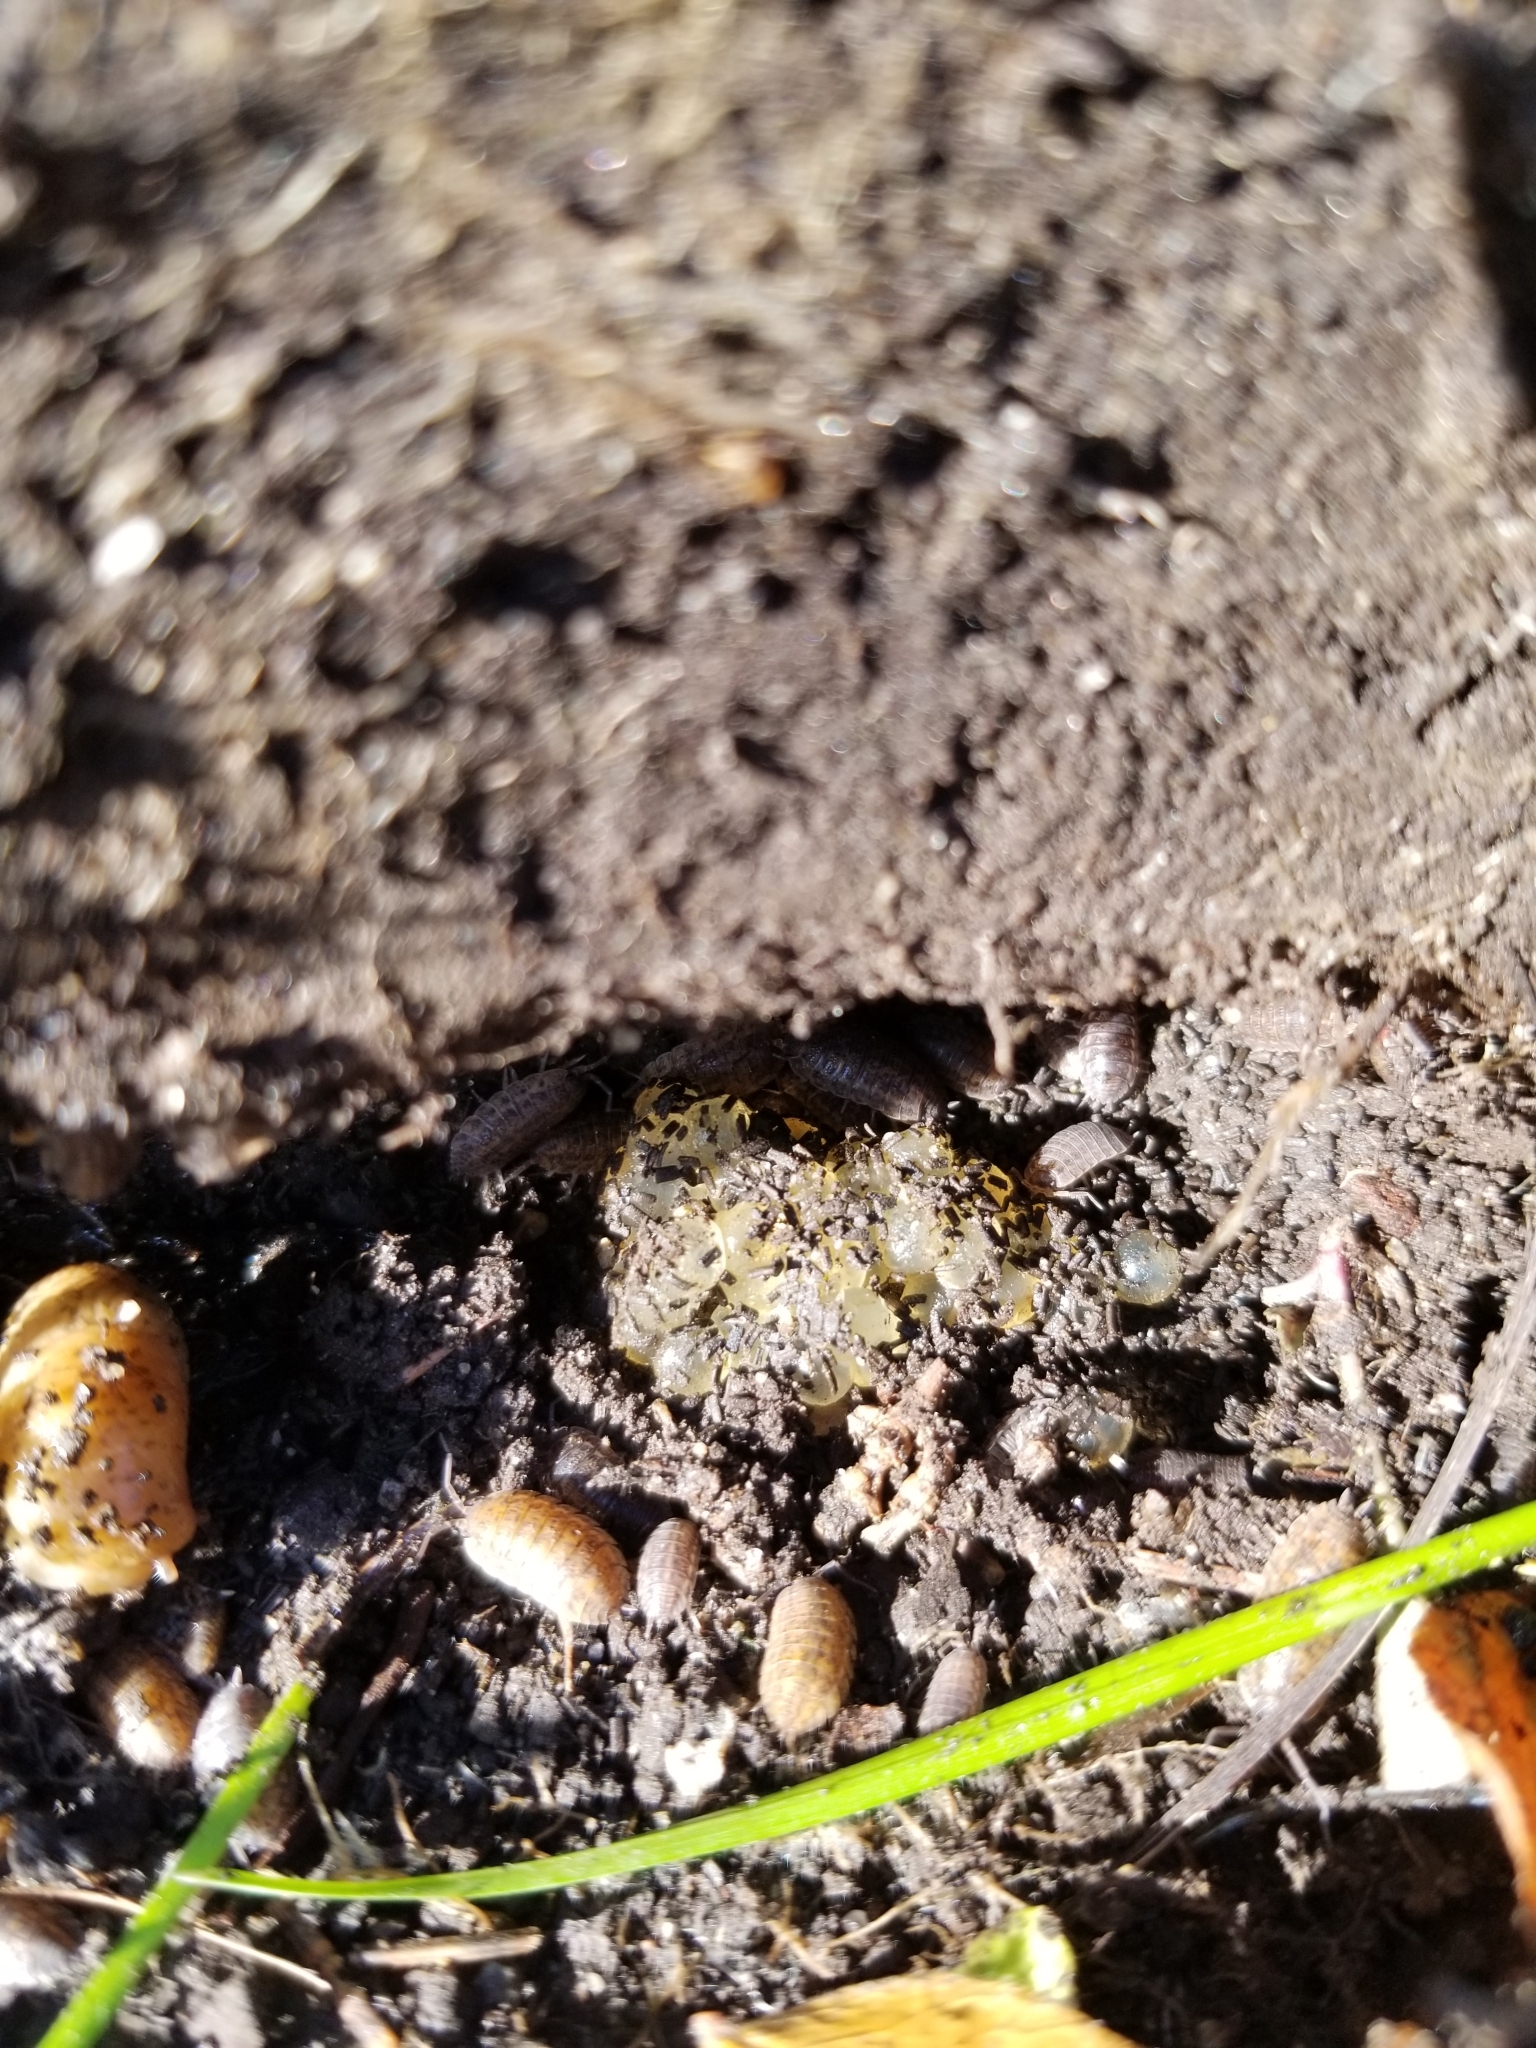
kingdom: Animalia
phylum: Arthropoda
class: Malacostraca
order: Isopoda
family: Armadillidiidae
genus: Armadillidium
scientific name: Armadillidium vulgare
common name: Common pill woodlouse
